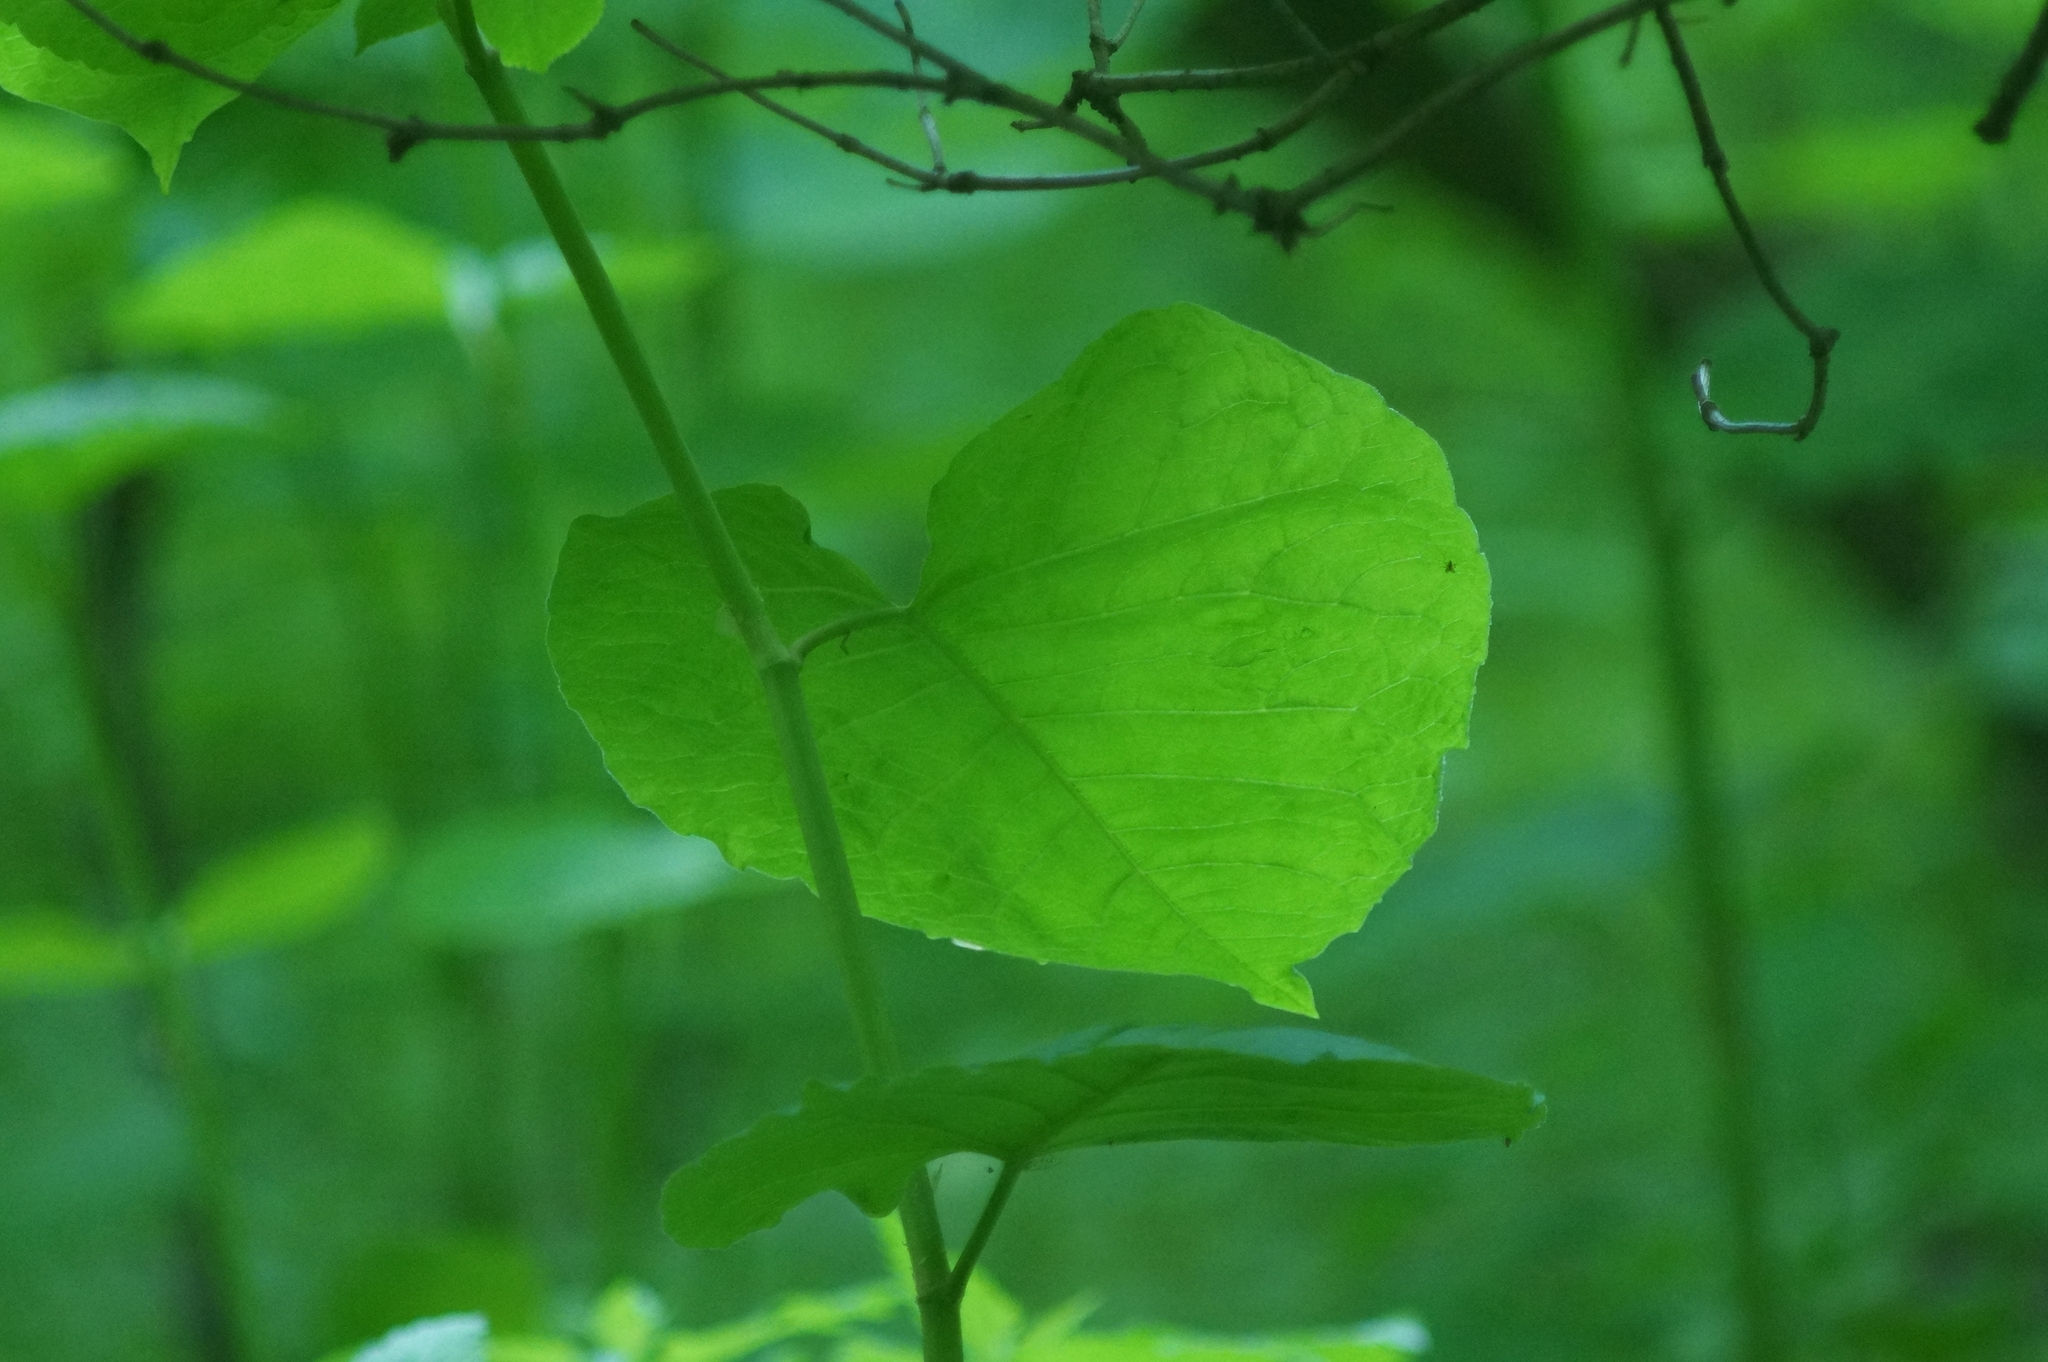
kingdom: Plantae
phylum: Tracheophyta
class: Magnoliopsida
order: Caryophyllales
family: Polygonaceae
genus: Reynoutria
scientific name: Reynoutria bohemica
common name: Bohemian knotweed
